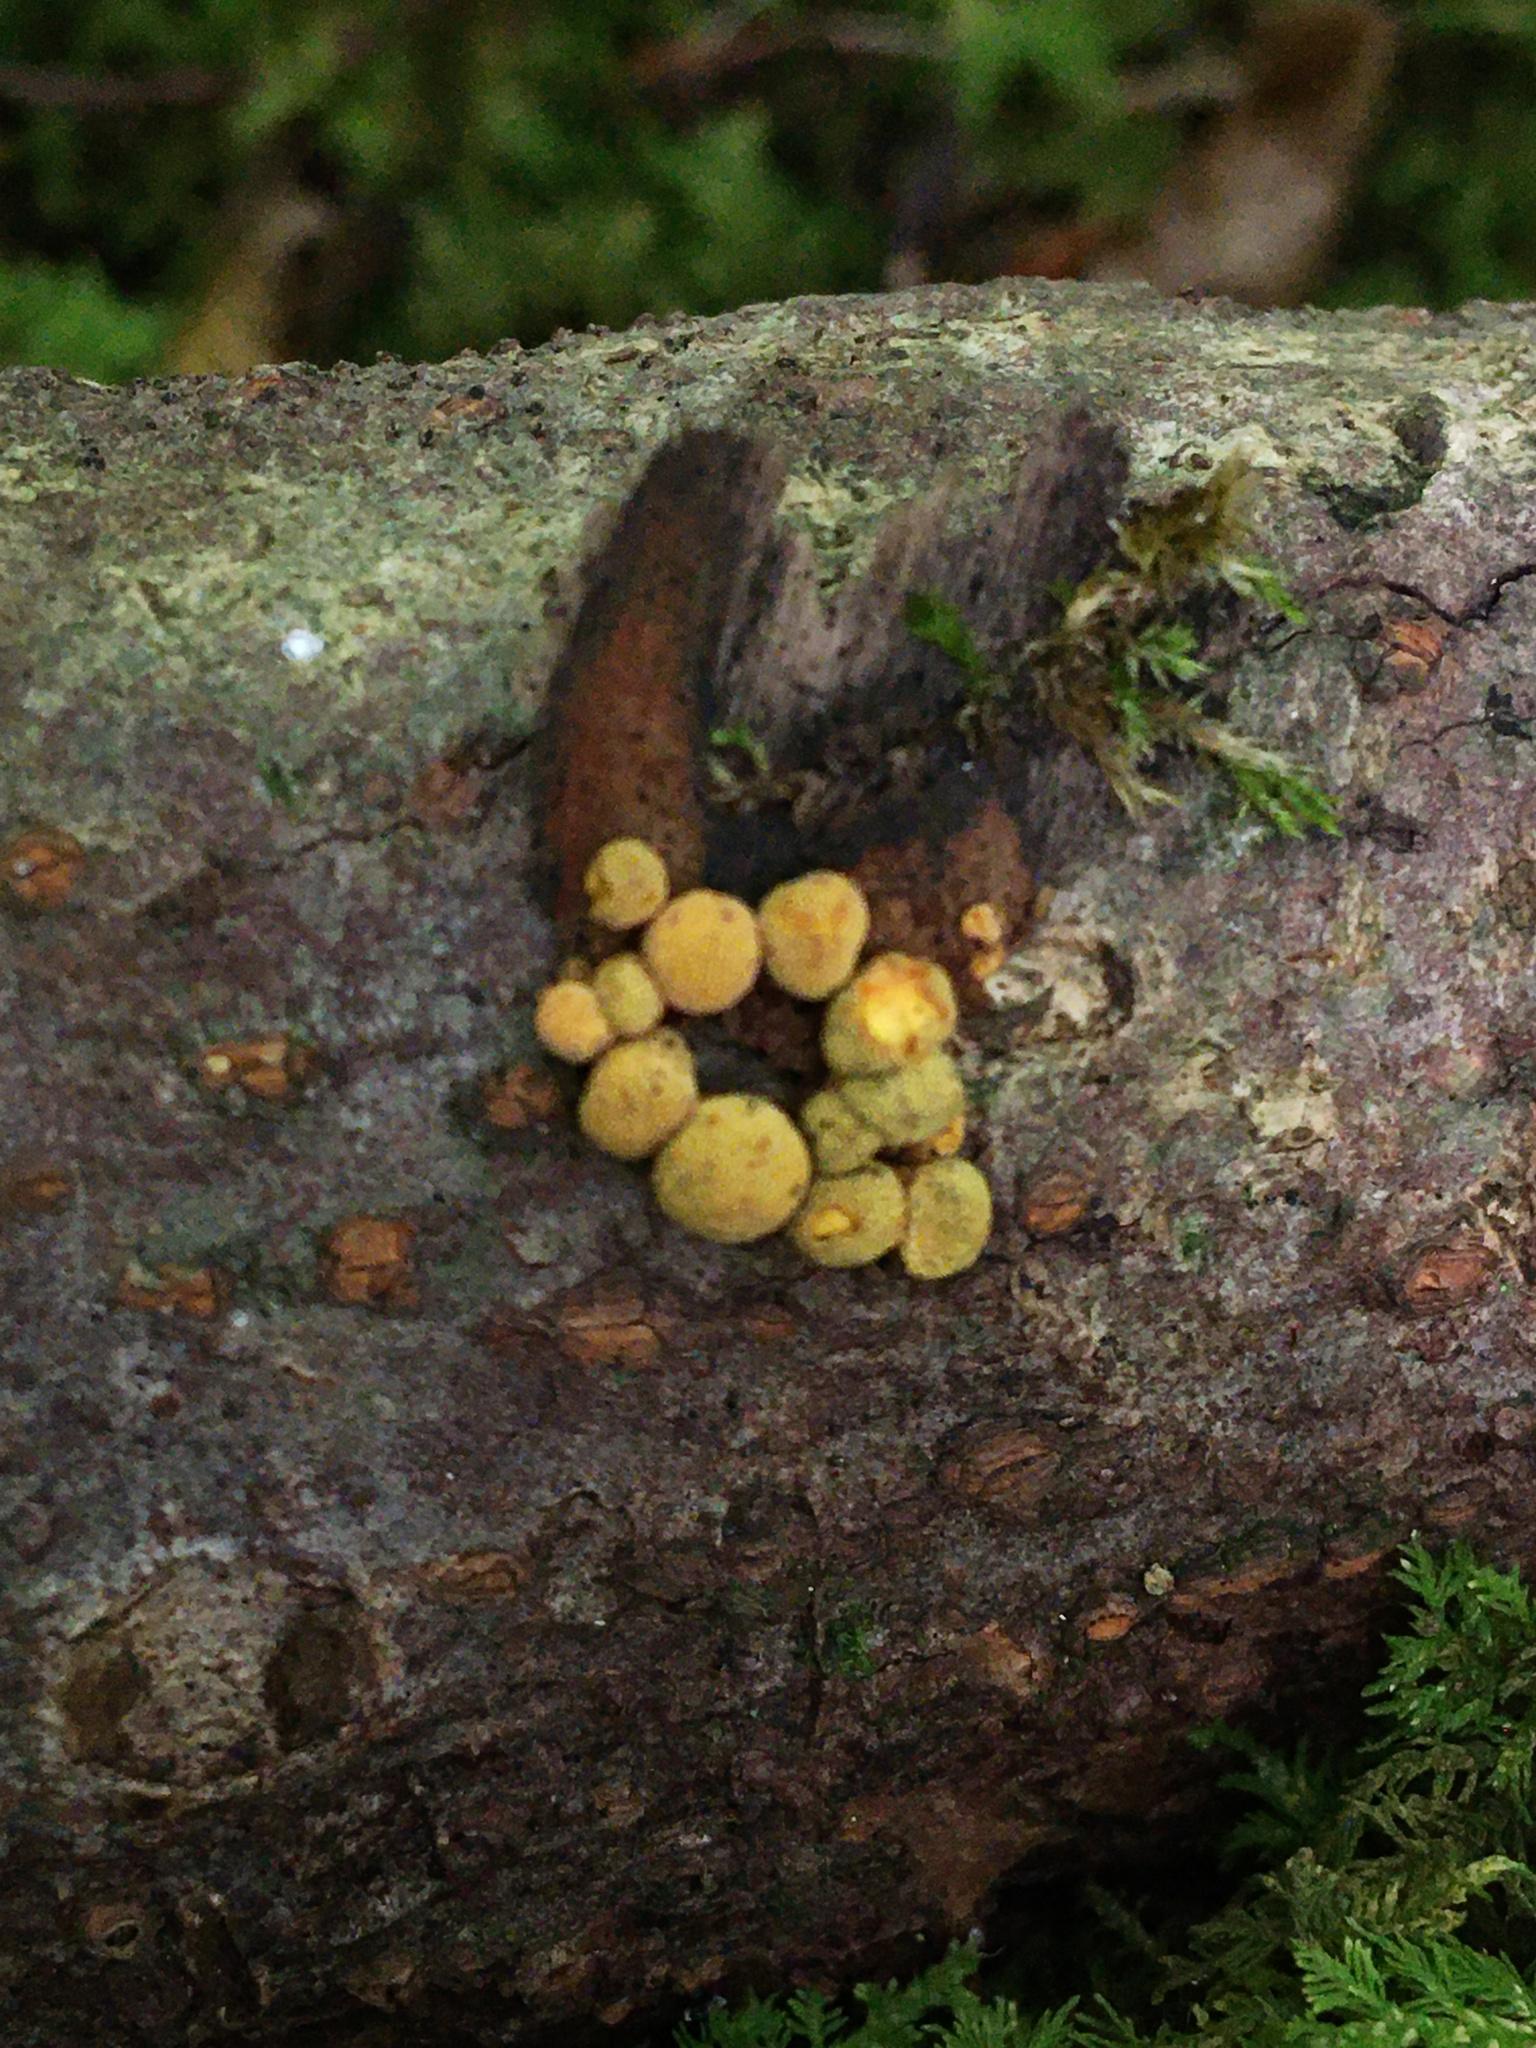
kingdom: Fungi
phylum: Ascomycota
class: Sordariomycetes
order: Xylariales
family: Hypoxylaceae
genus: Thuemenella
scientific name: Thuemenella cubispora
